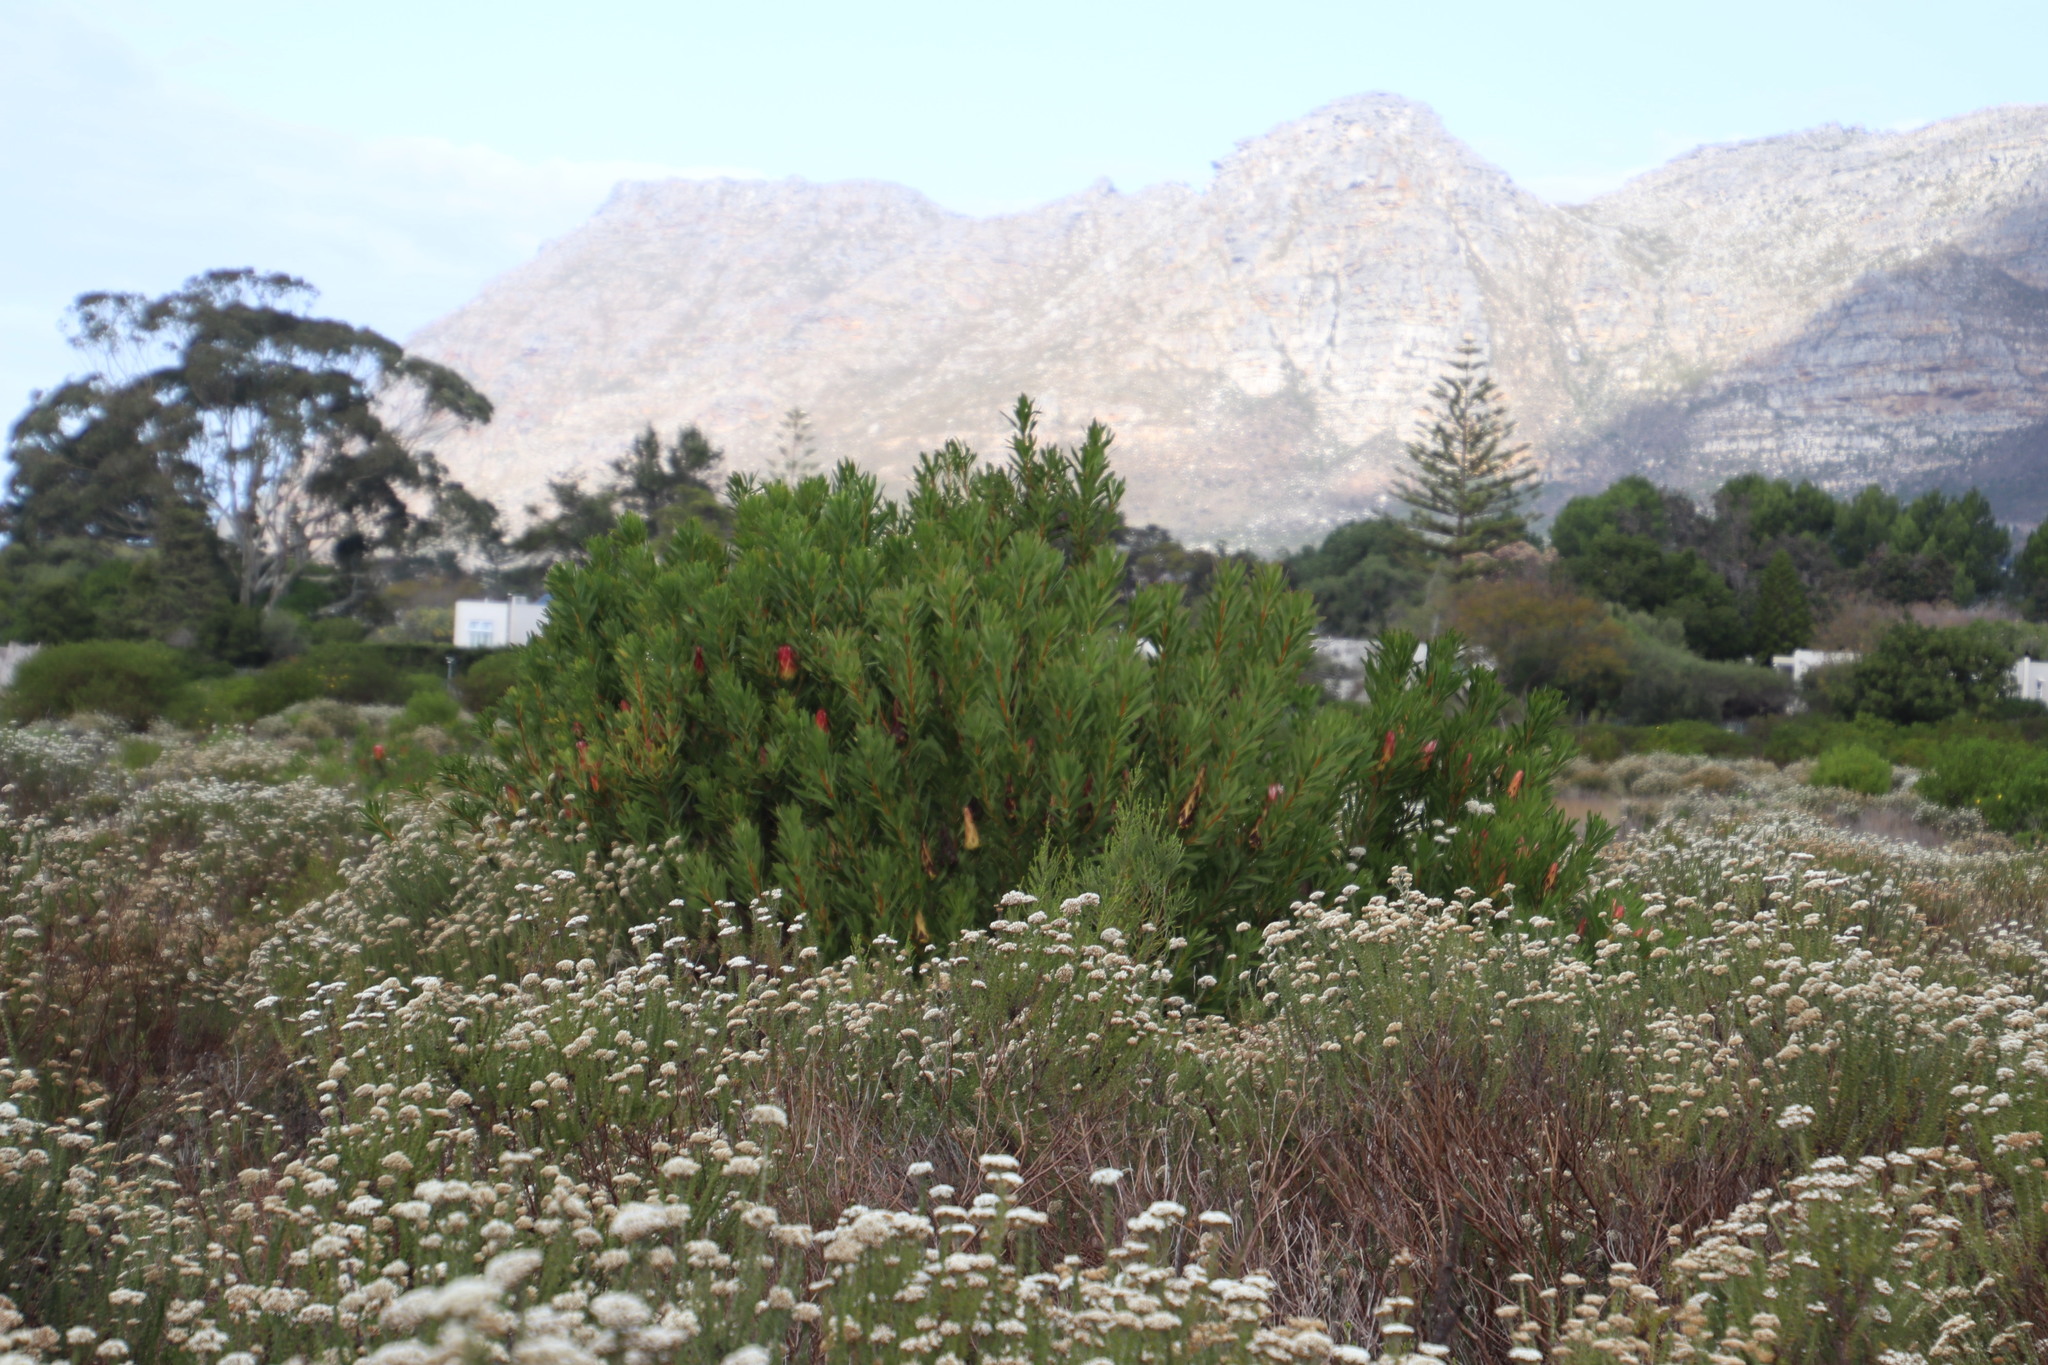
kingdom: Plantae
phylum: Tracheophyta
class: Magnoliopsida
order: Proteales
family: Proteaceae
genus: Protea
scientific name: Protea repens
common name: Sugarbush
